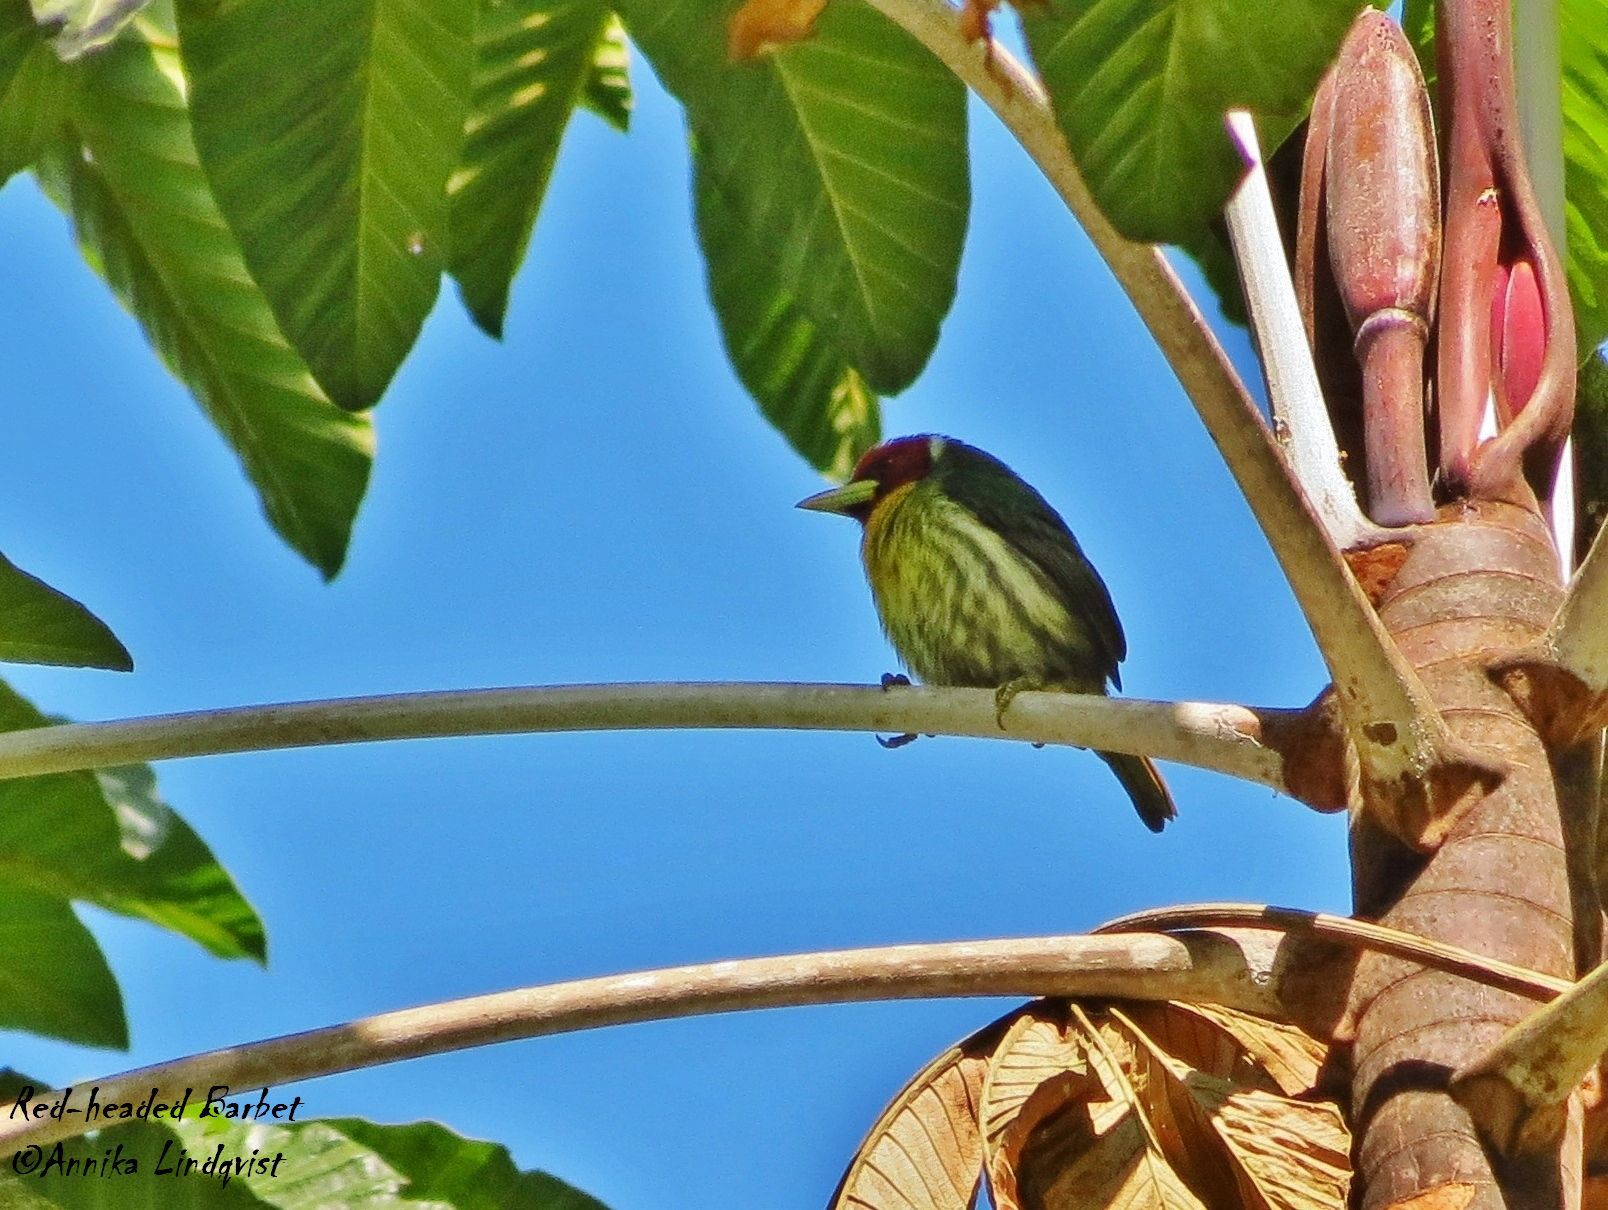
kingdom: Animalia
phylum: Chordata
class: Aves
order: Piciformes
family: Capitonidae
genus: Eubucco
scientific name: Eubucco bourcierii
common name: Red-headed barbet
